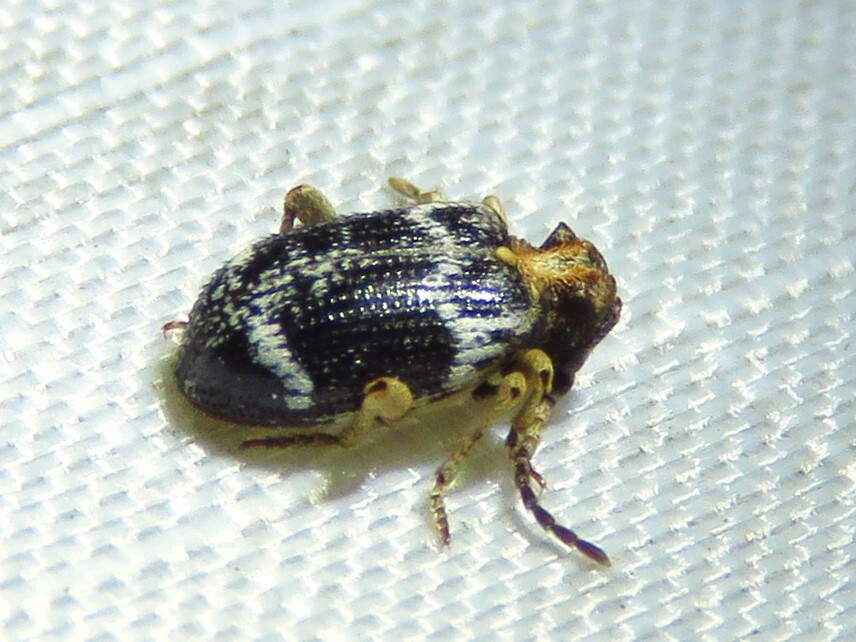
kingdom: Animalia
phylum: Arthropoda
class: Insecta
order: Coleoptera
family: Ptinidae
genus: Ptinus
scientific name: Ptinus variegatus
